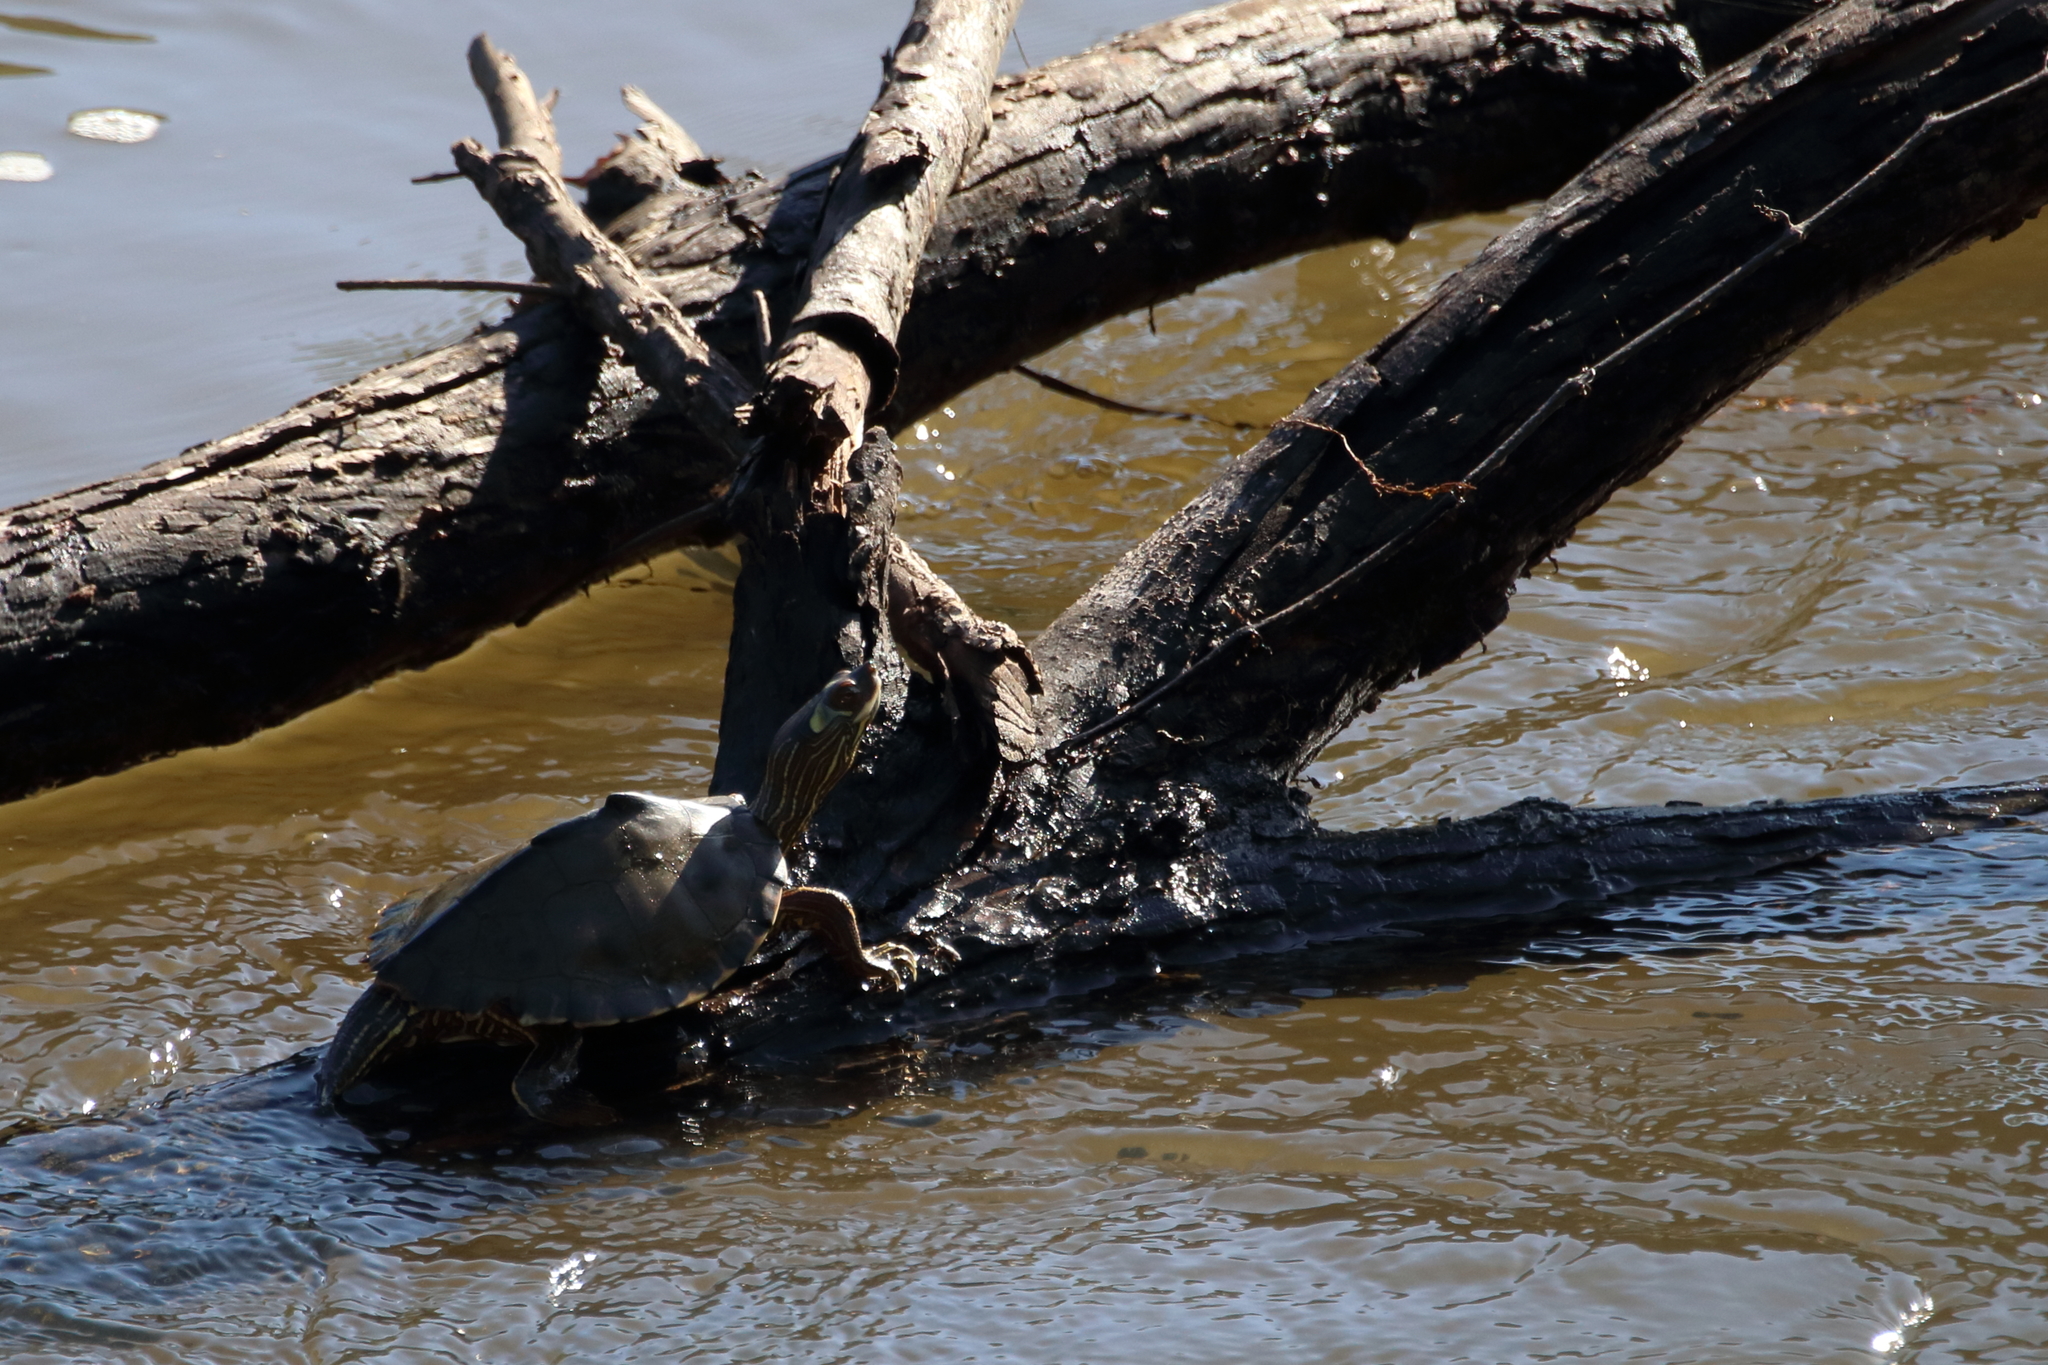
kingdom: Animalia
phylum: Chordata
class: Testudines
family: Emydidae
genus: Graptemys
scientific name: Graptemys pearlensis
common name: Pearl river map turtle
